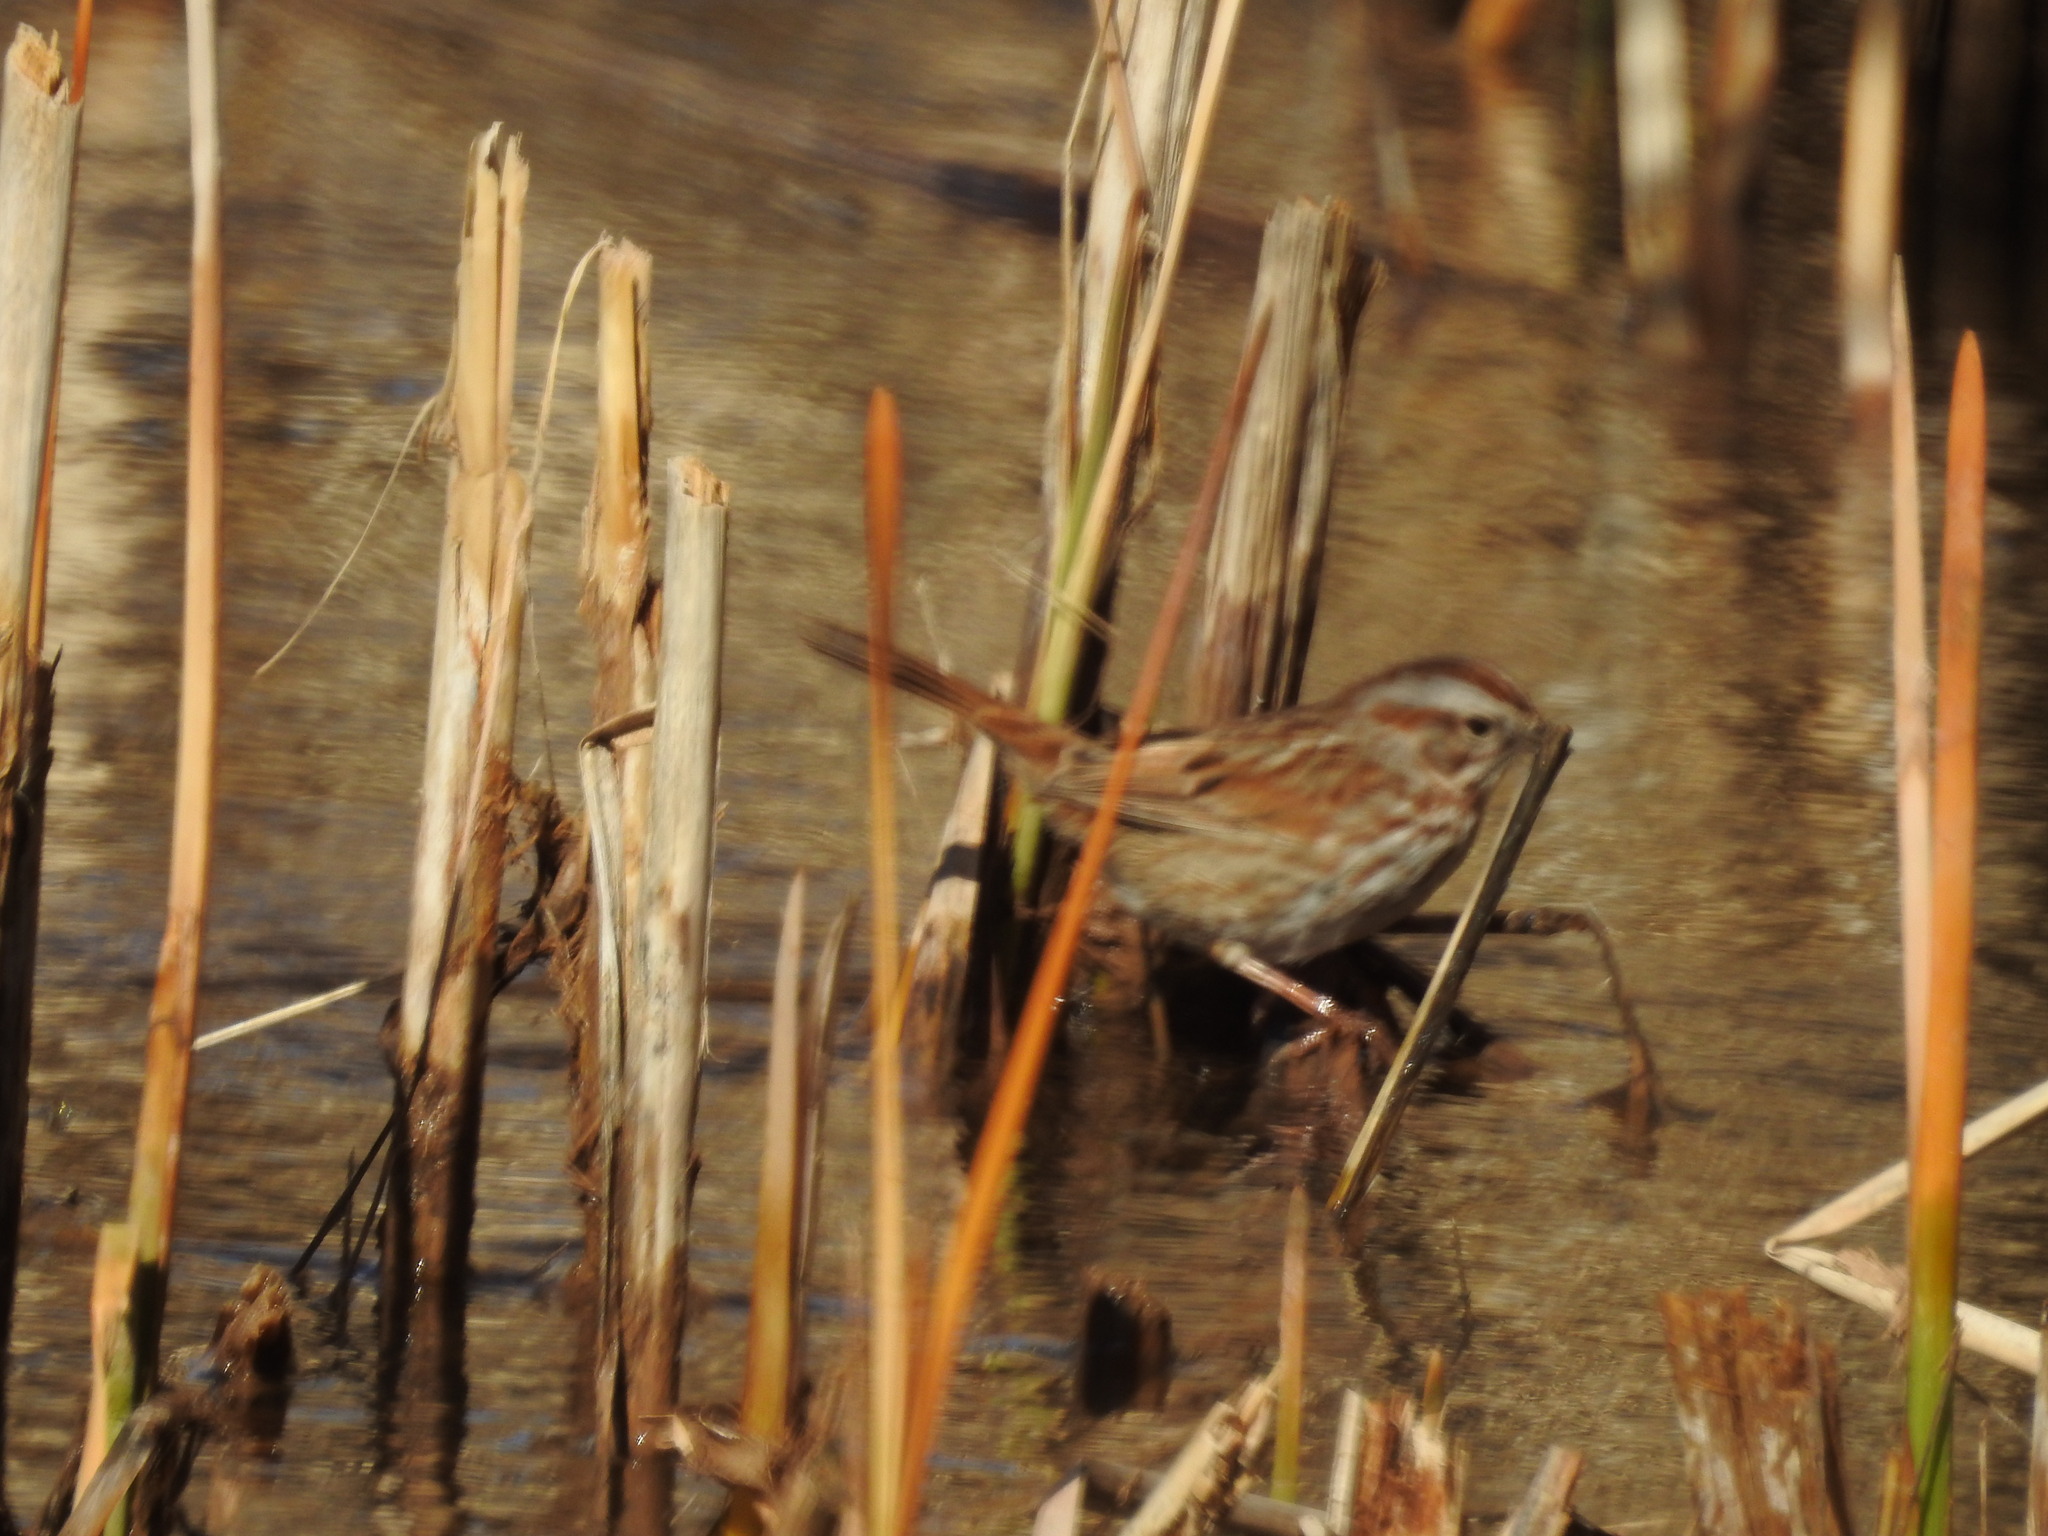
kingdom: Animalia
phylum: Chordata
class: Aves
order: Passeriformes
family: Passerellidae
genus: Melospiza
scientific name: Melospiza melodia
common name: Song sparrow
